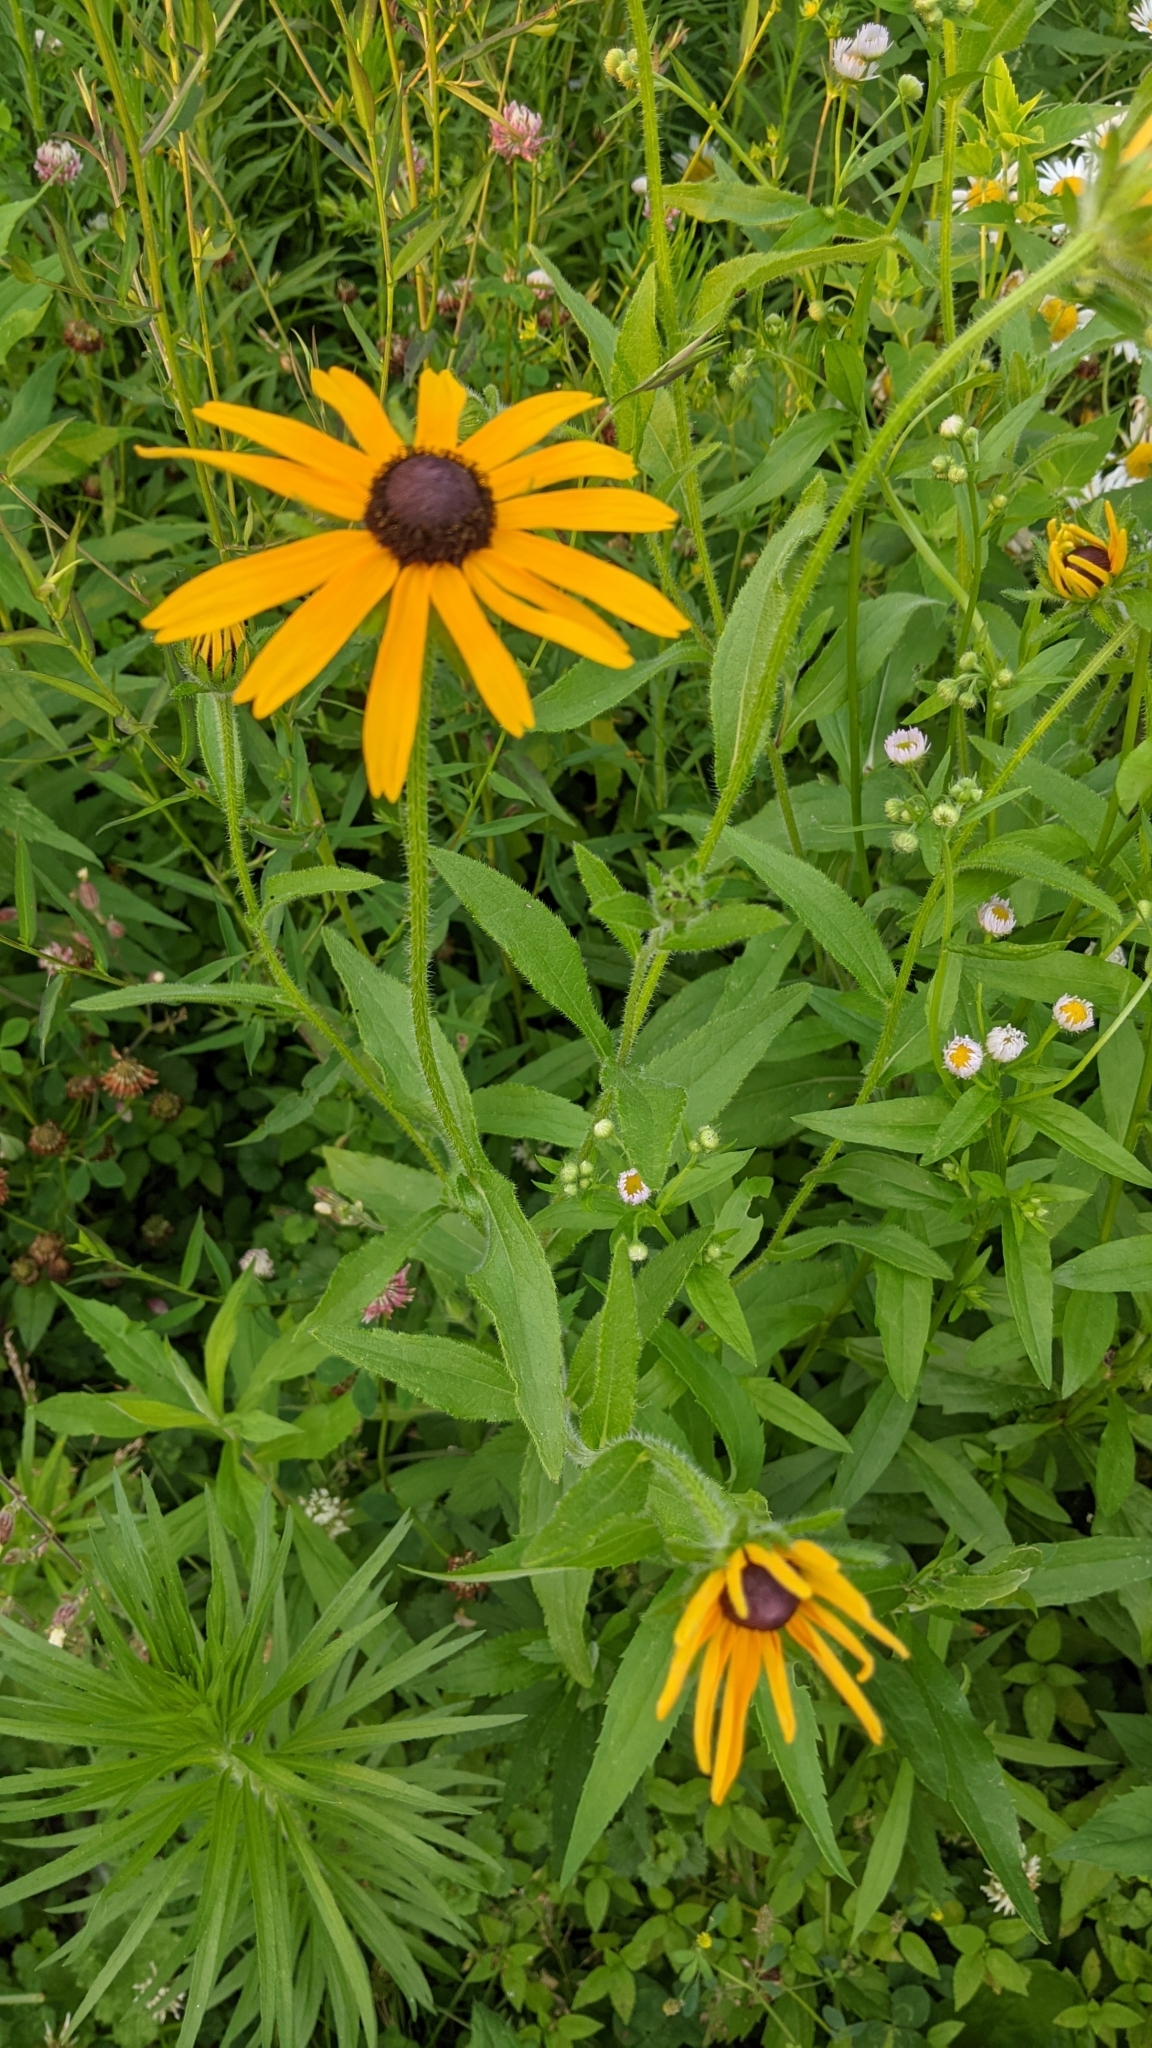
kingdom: Plantae
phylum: Tracheophyta
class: Magnoliopsida
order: Asterales
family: Asteraceae
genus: Rudbeckia
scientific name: Rudbeckia hirta
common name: Black-eyed-susan
